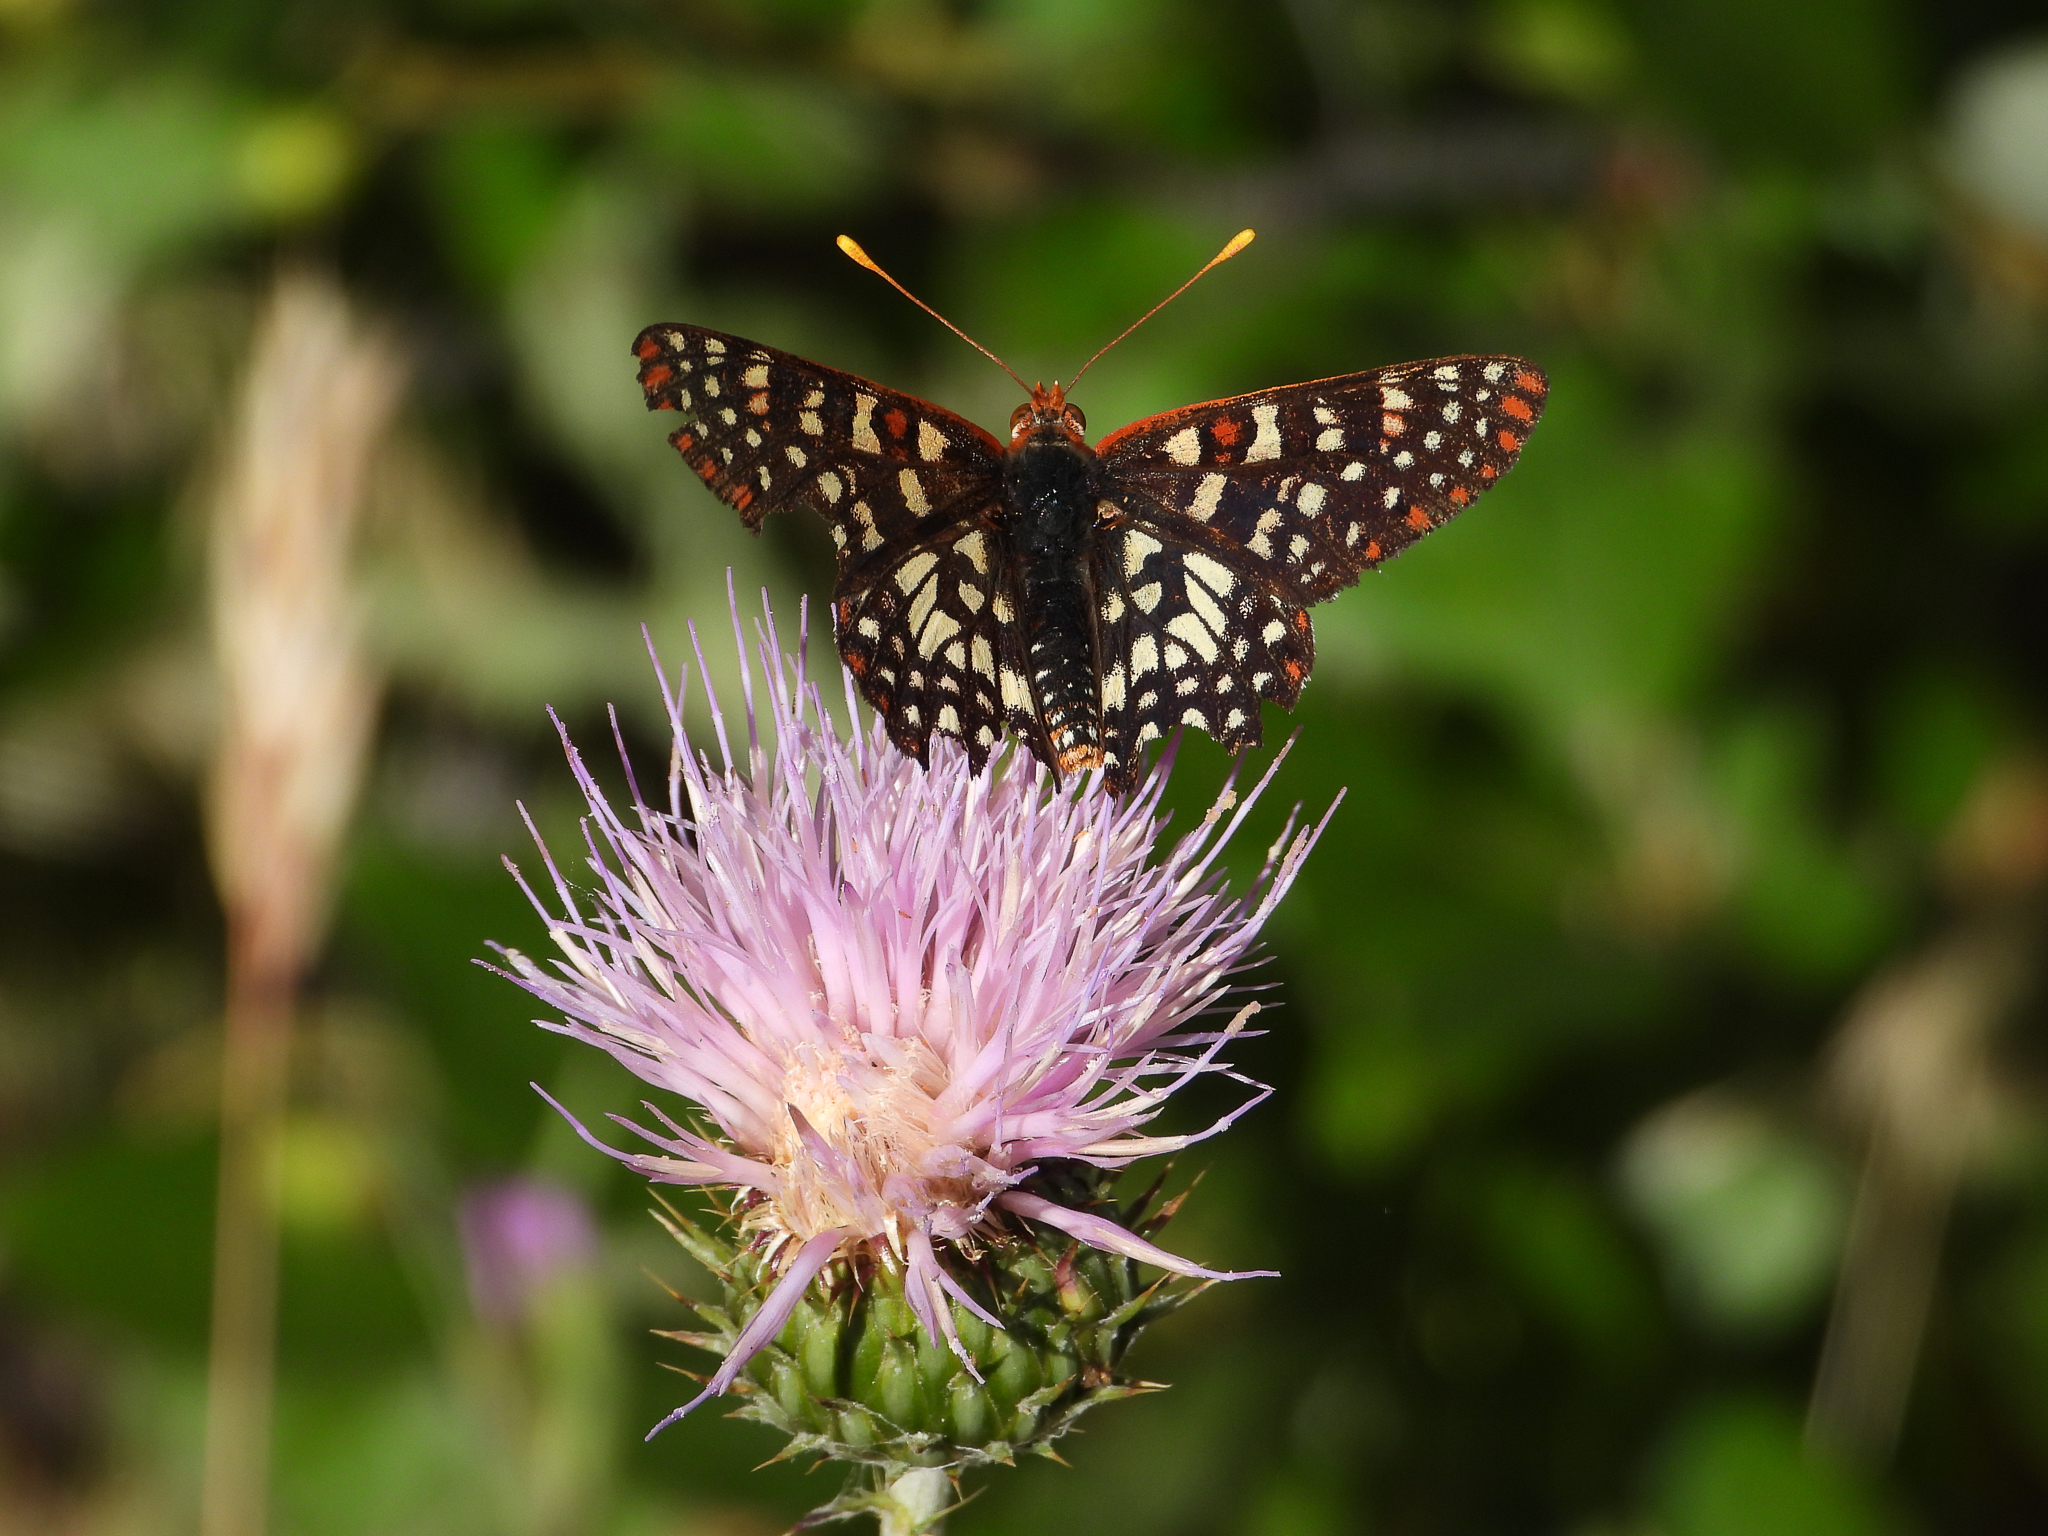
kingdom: Animalia
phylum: Arthropoda
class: Insecta
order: Lepidoptera
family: Nymphalidae
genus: Occidryas
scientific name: Occidryas chalcedona
